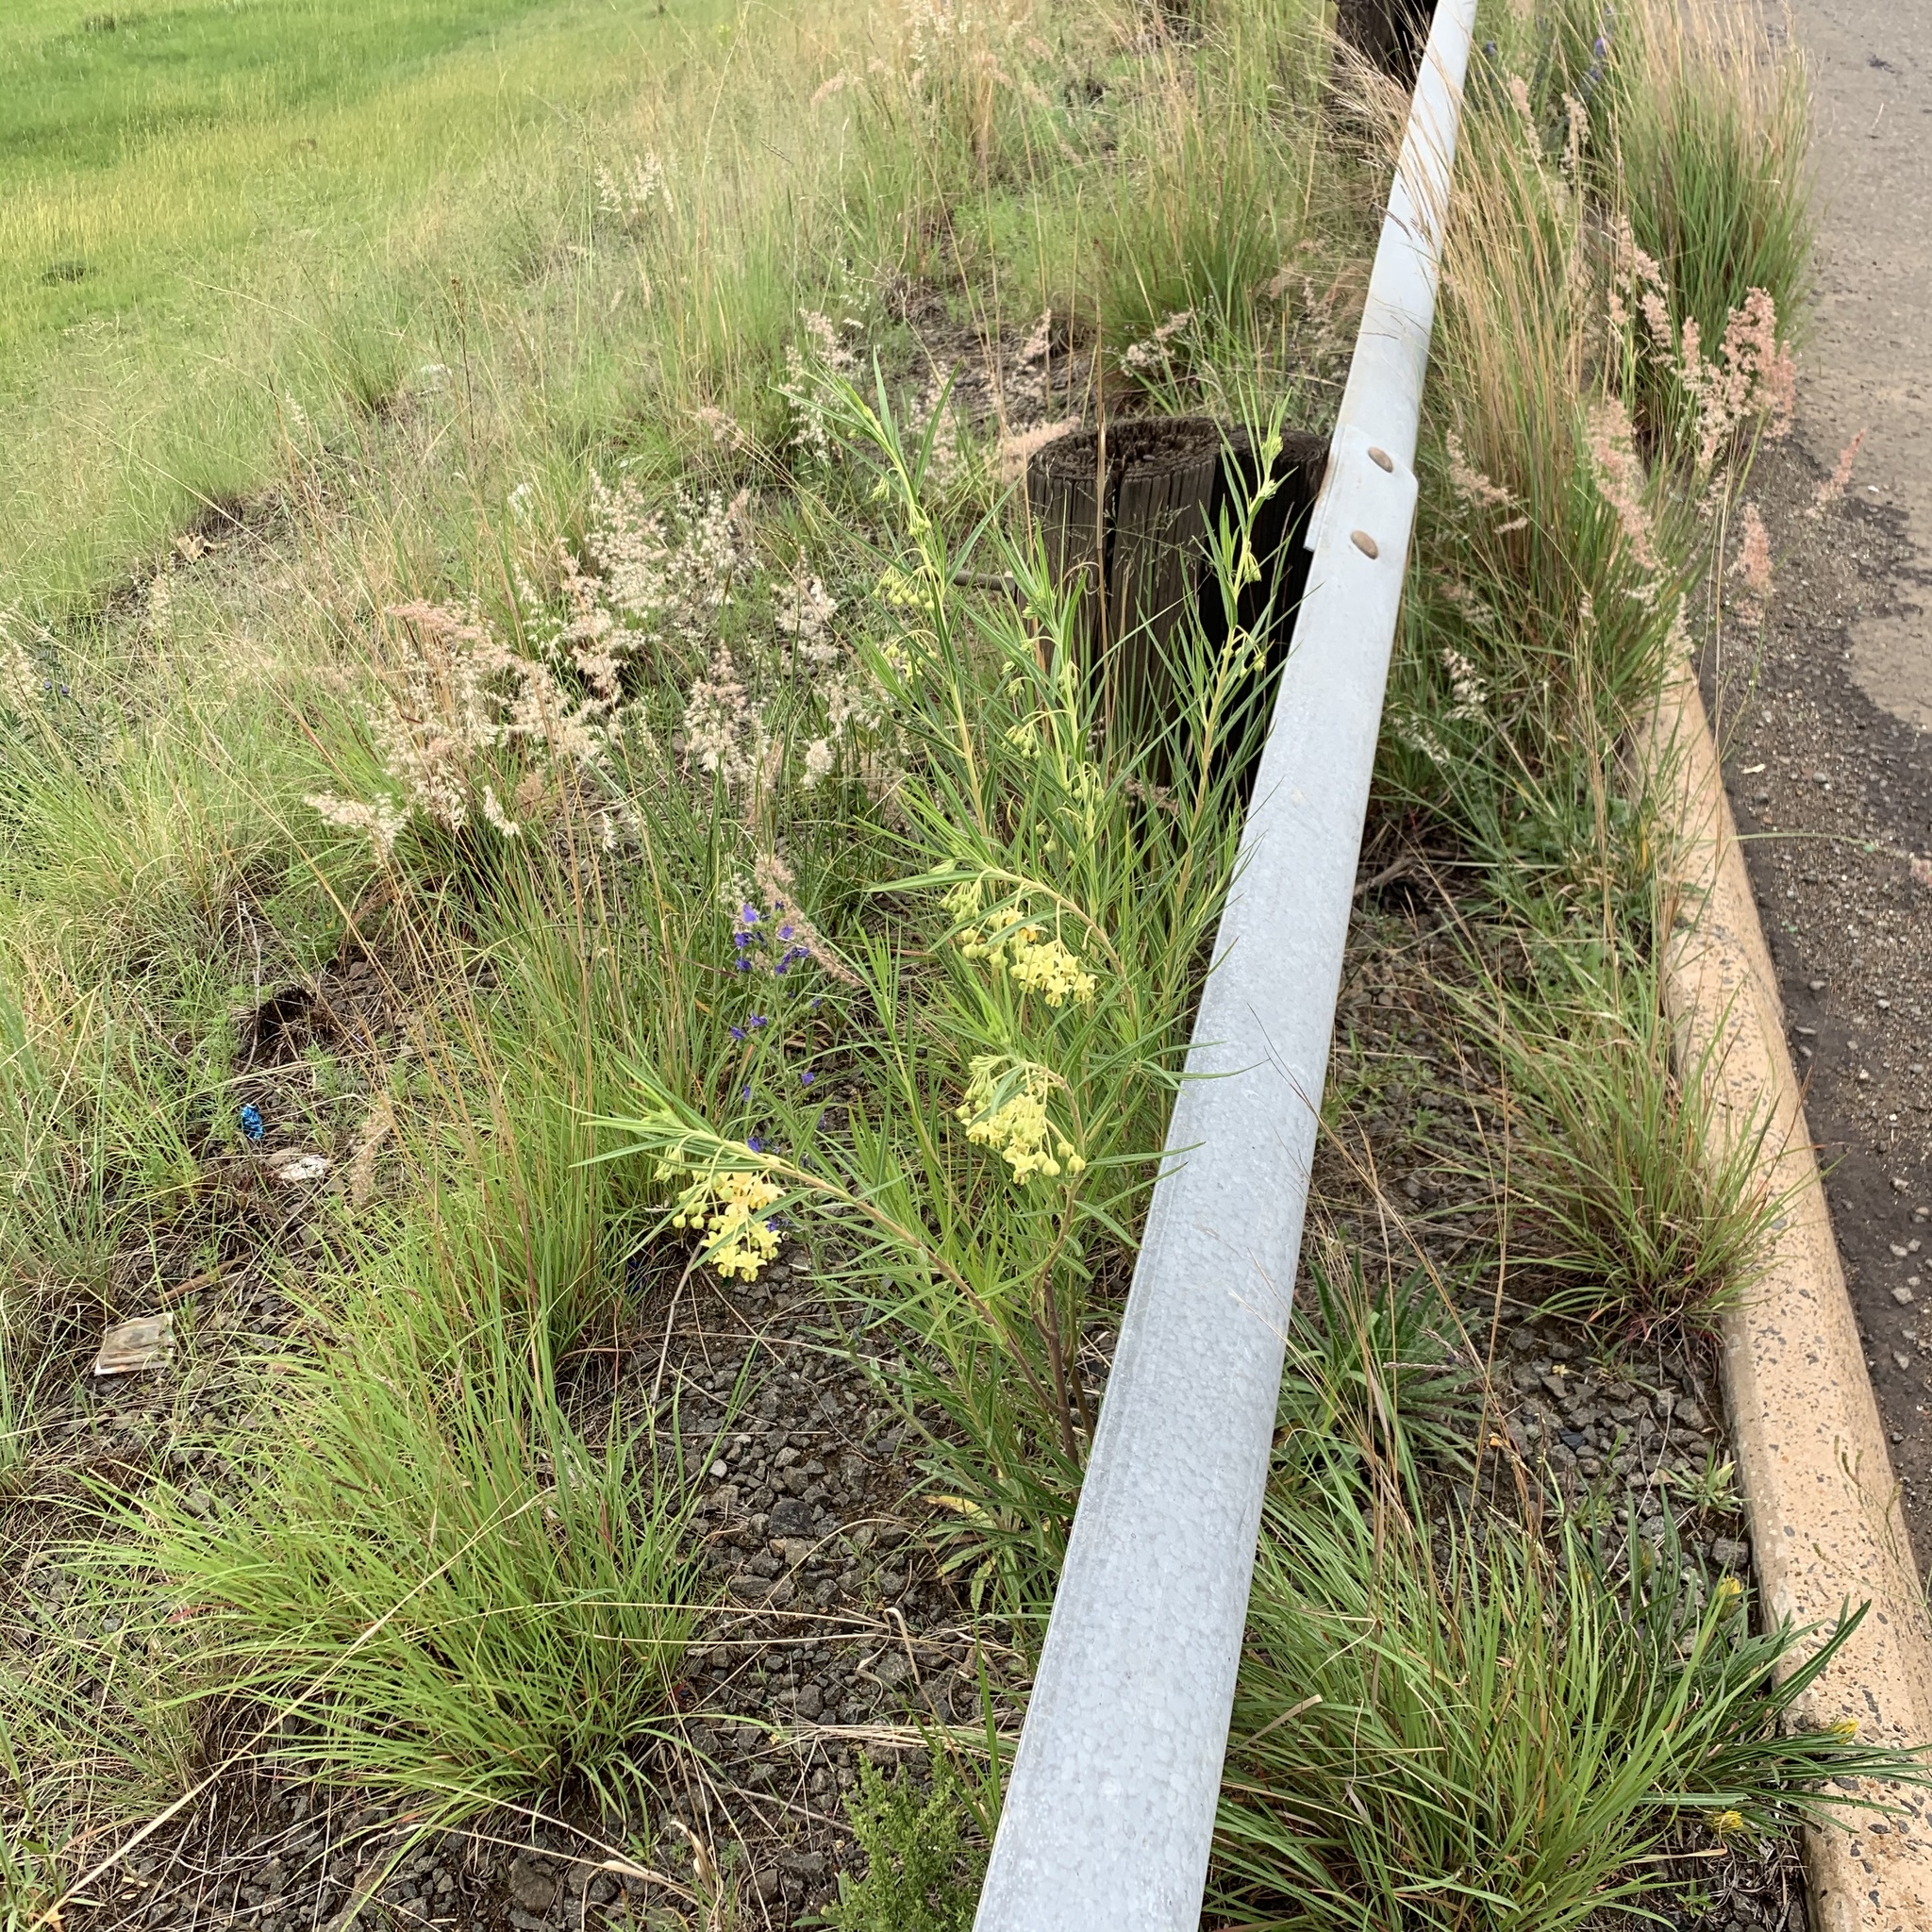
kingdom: Plantae
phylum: Tracheophyta
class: Magnoliopsida
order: Gentianales
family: Apocynaceae
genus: Gomphocarpus
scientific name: Gomphocarpus fruticosus
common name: Milkweed
